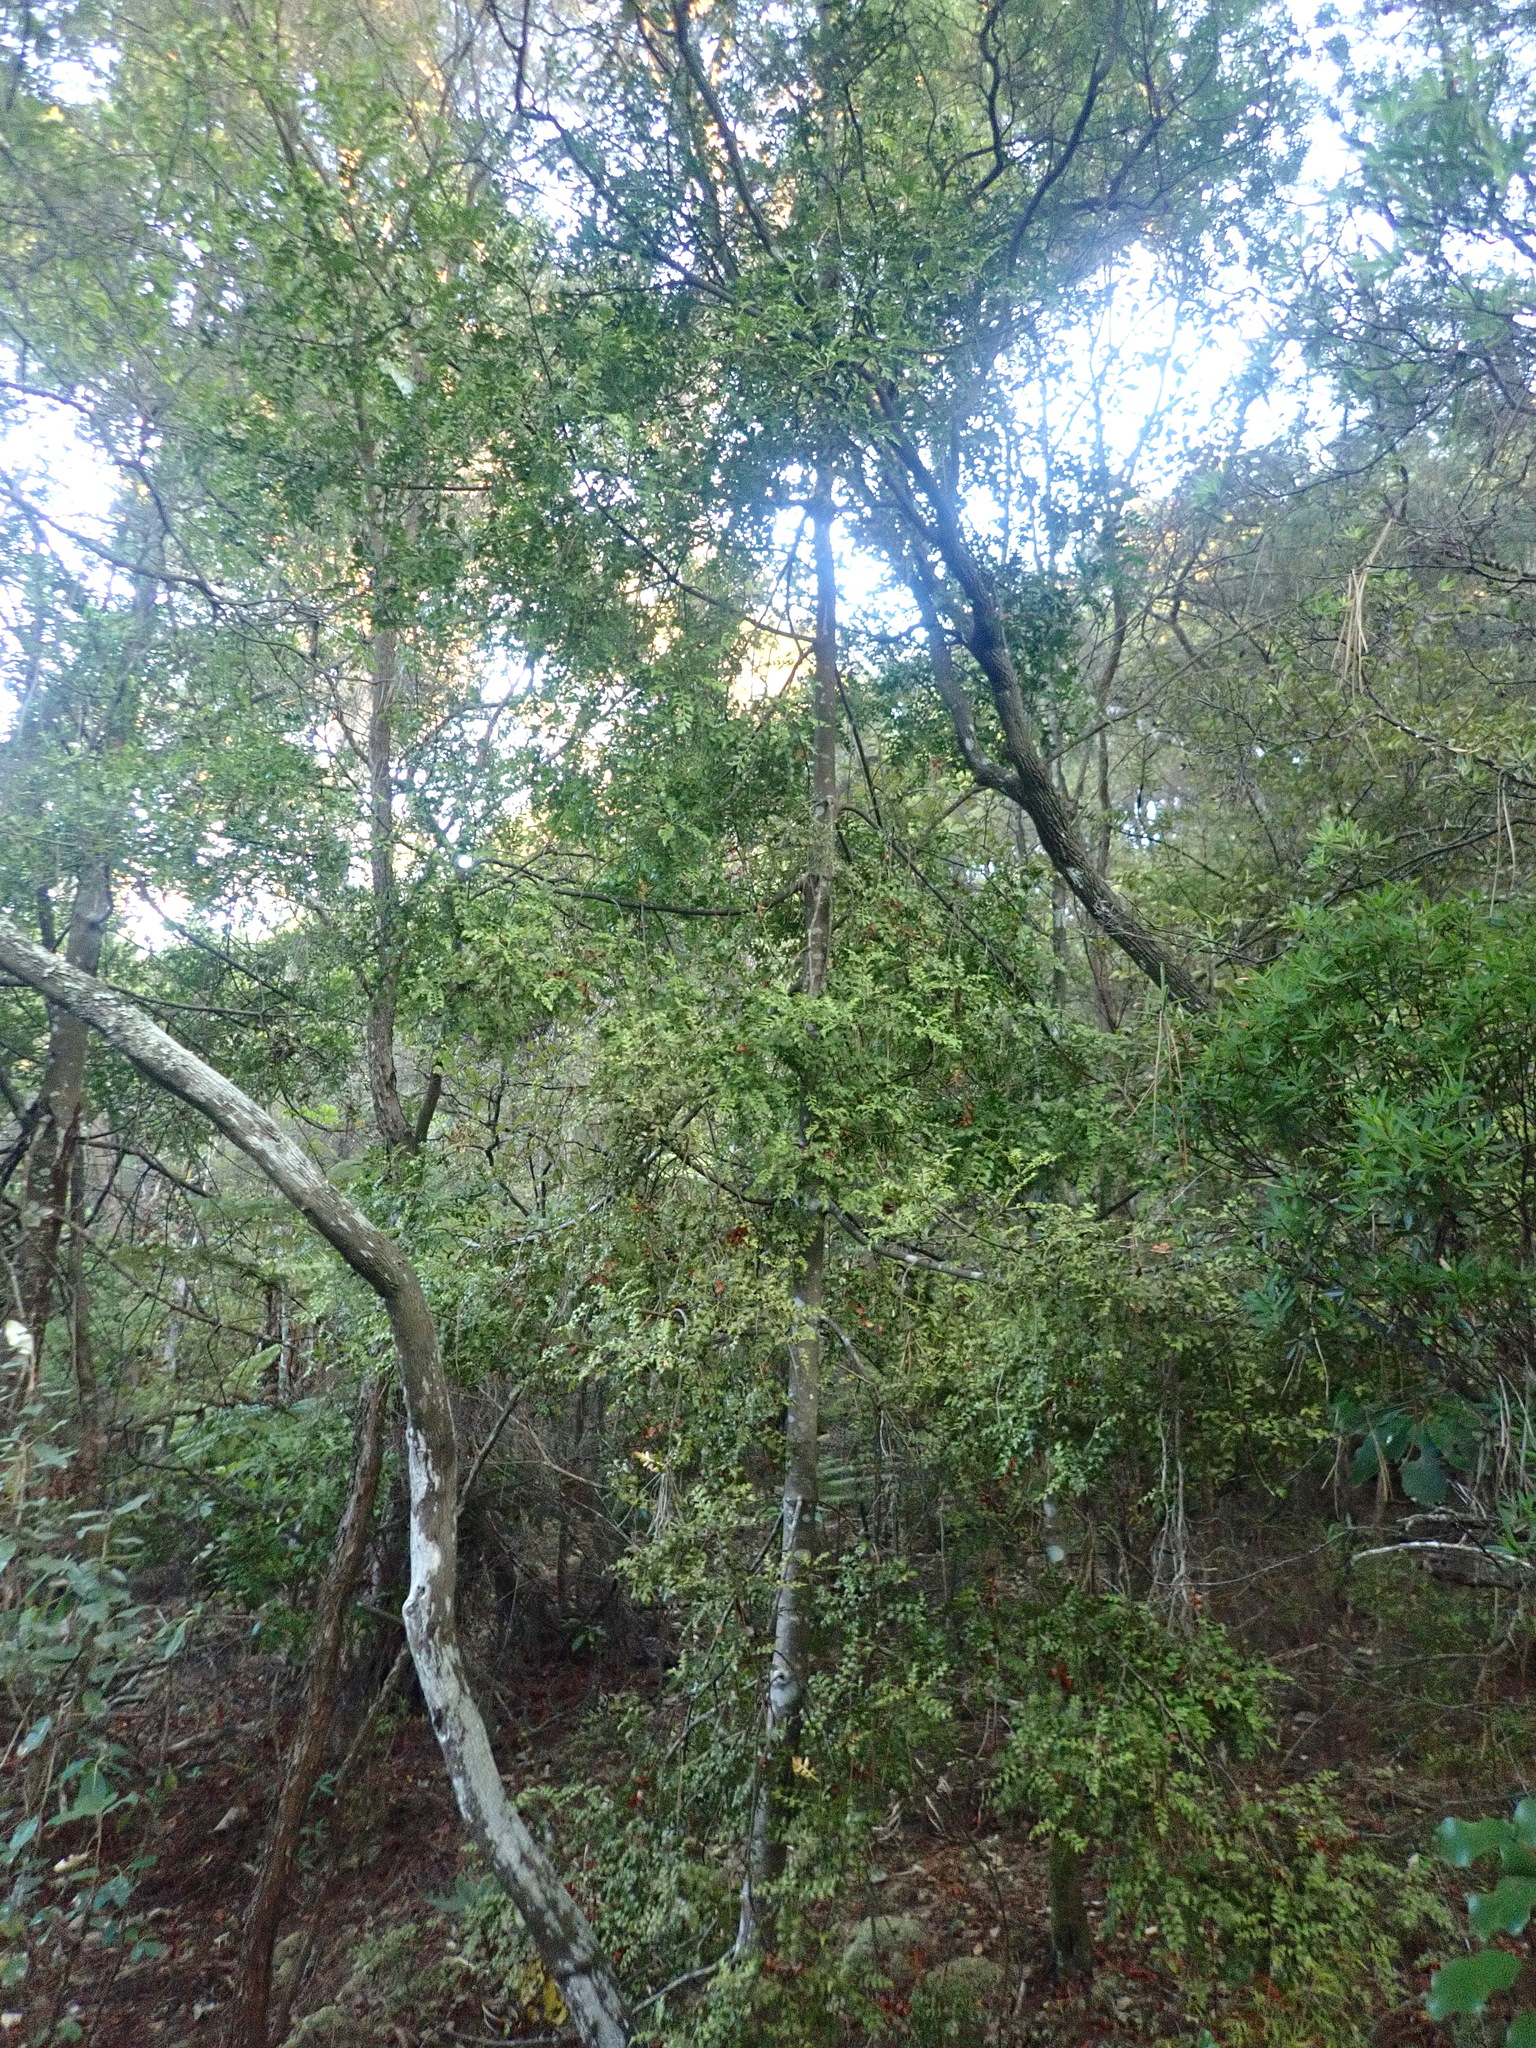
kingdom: Plantae
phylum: Tracheophyta
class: Pinopsida
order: Pinales
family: Phyllocladaceae
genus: Phyllocladus
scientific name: Phyllocladus trichomanoides
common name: Celery pine
